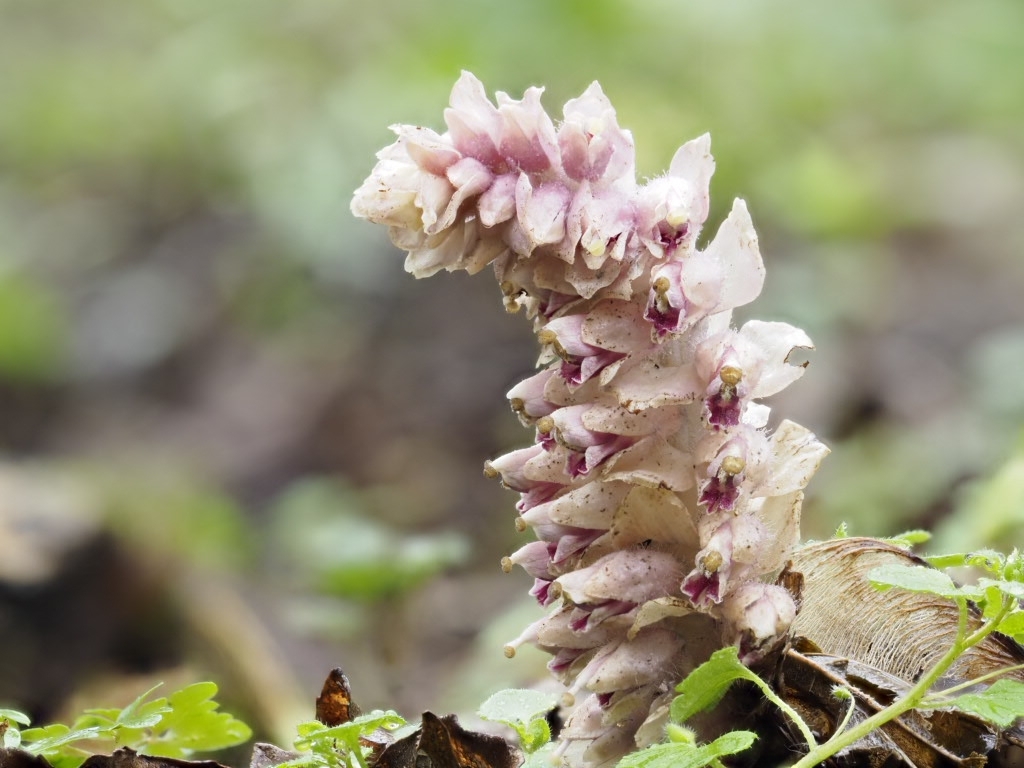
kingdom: Plantae
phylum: Tracheophyta
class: Magnoliopsida
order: Lamiales
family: Orobanchaceae
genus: Lathraea
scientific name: Lathraea squamaria
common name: Toothwort
